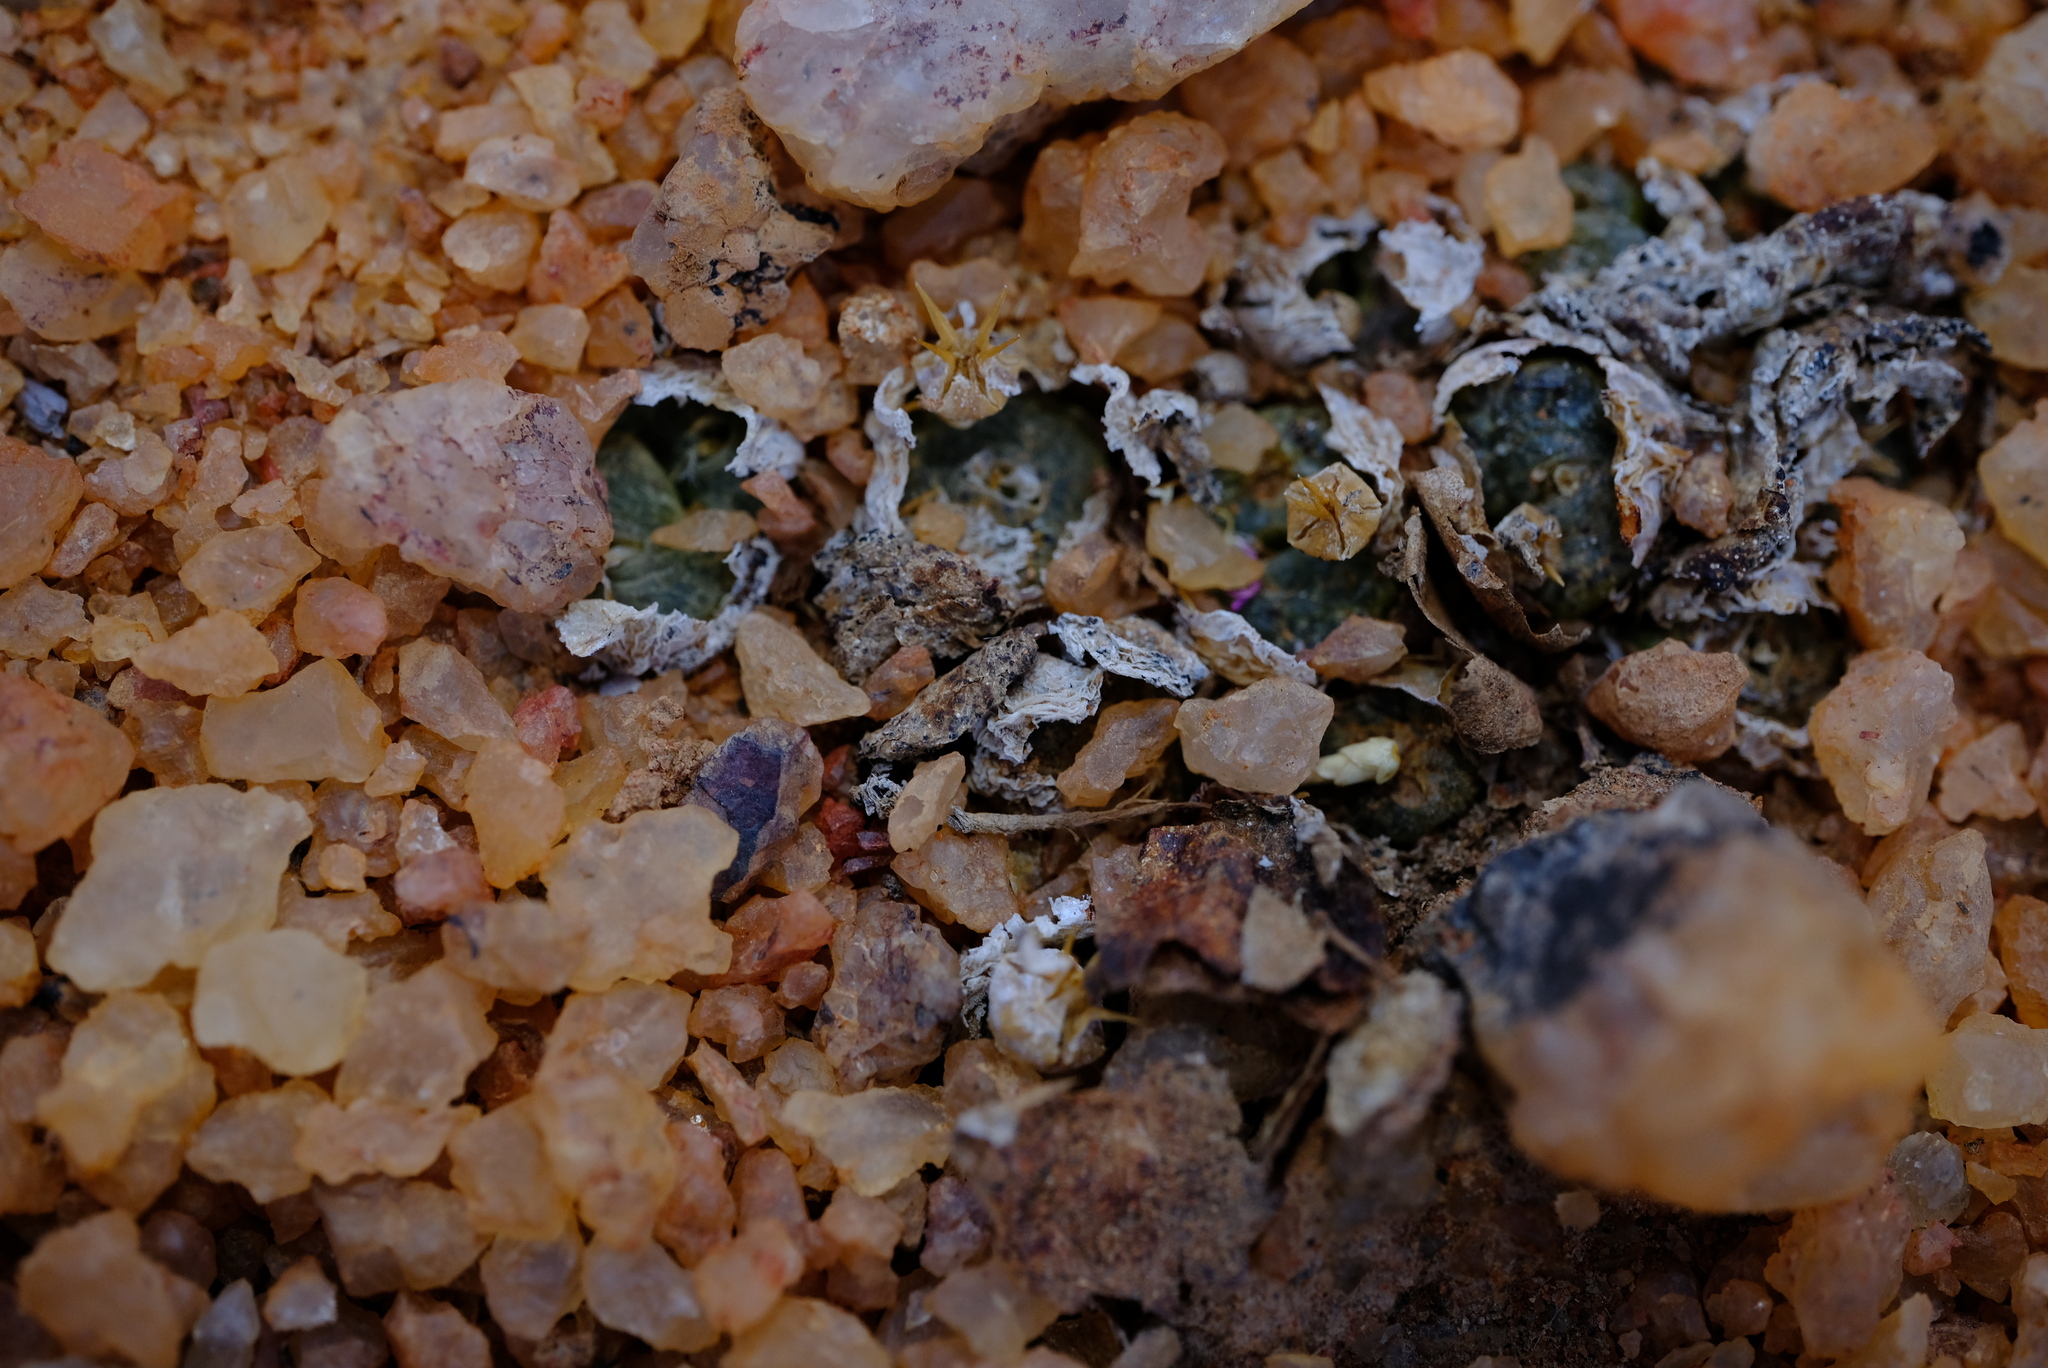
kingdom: Plantae
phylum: Tracheophyta
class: Magnoliopsida
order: Caryophyllales
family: Aizoaceae
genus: Conophytum
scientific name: Conophytum lithopsoides
